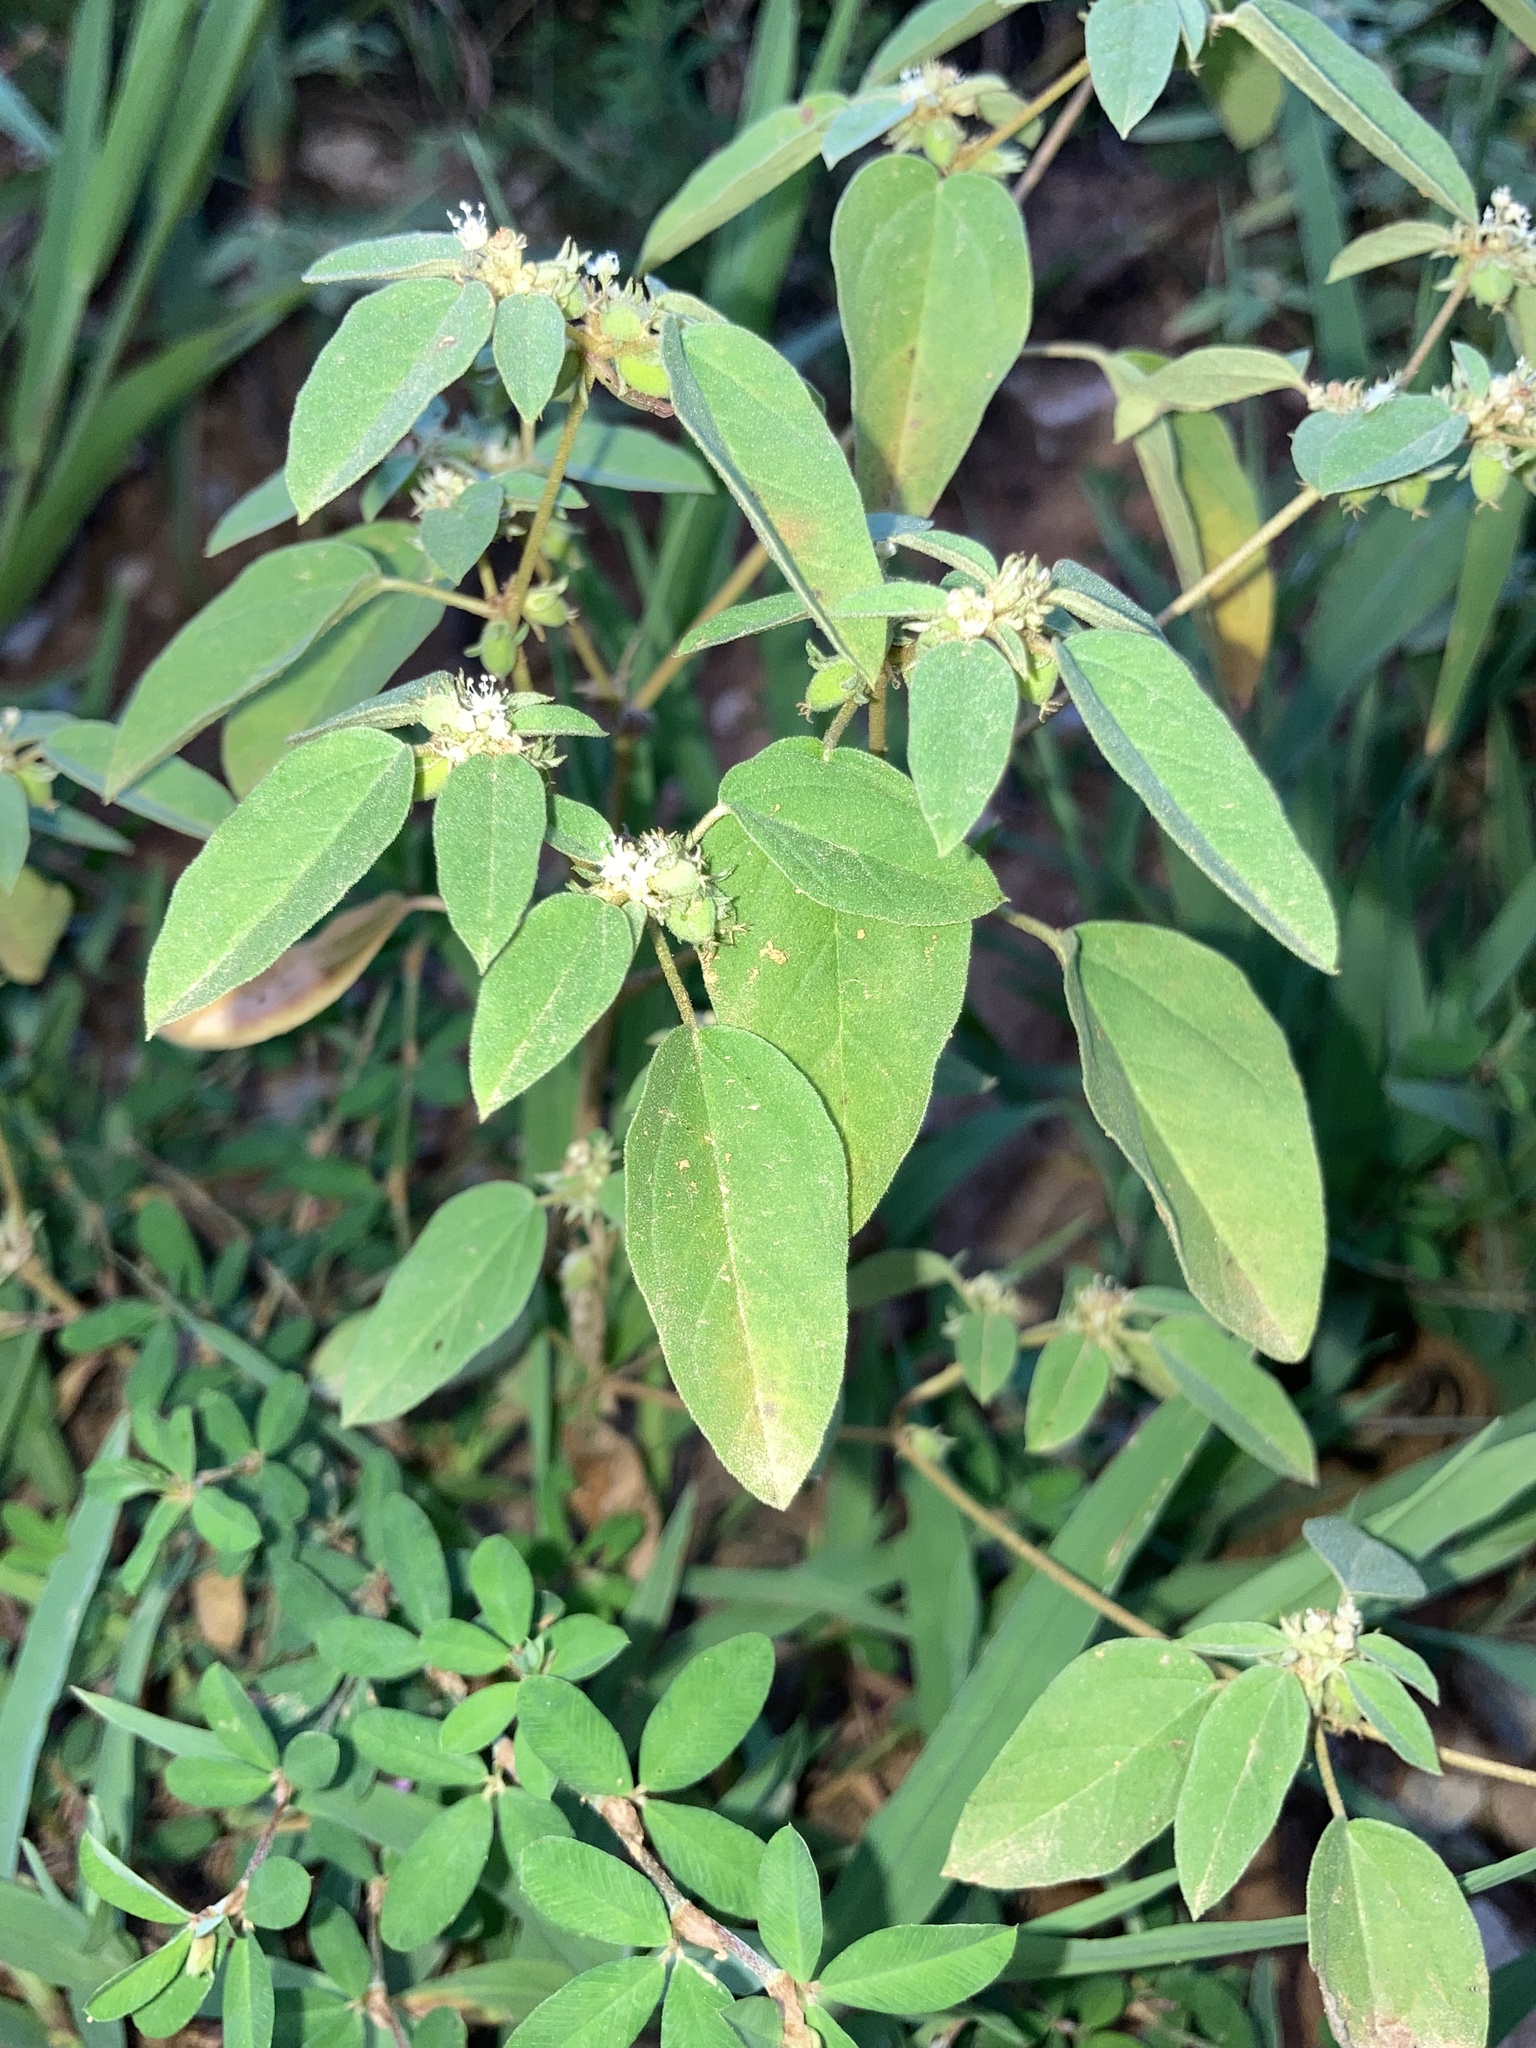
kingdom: Plantae
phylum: Tracheophyta
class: Magnoliopsida
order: Malpighiales
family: Euphorbiaceae
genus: Croton
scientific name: Croton monanthogynus
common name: One-seed croton
